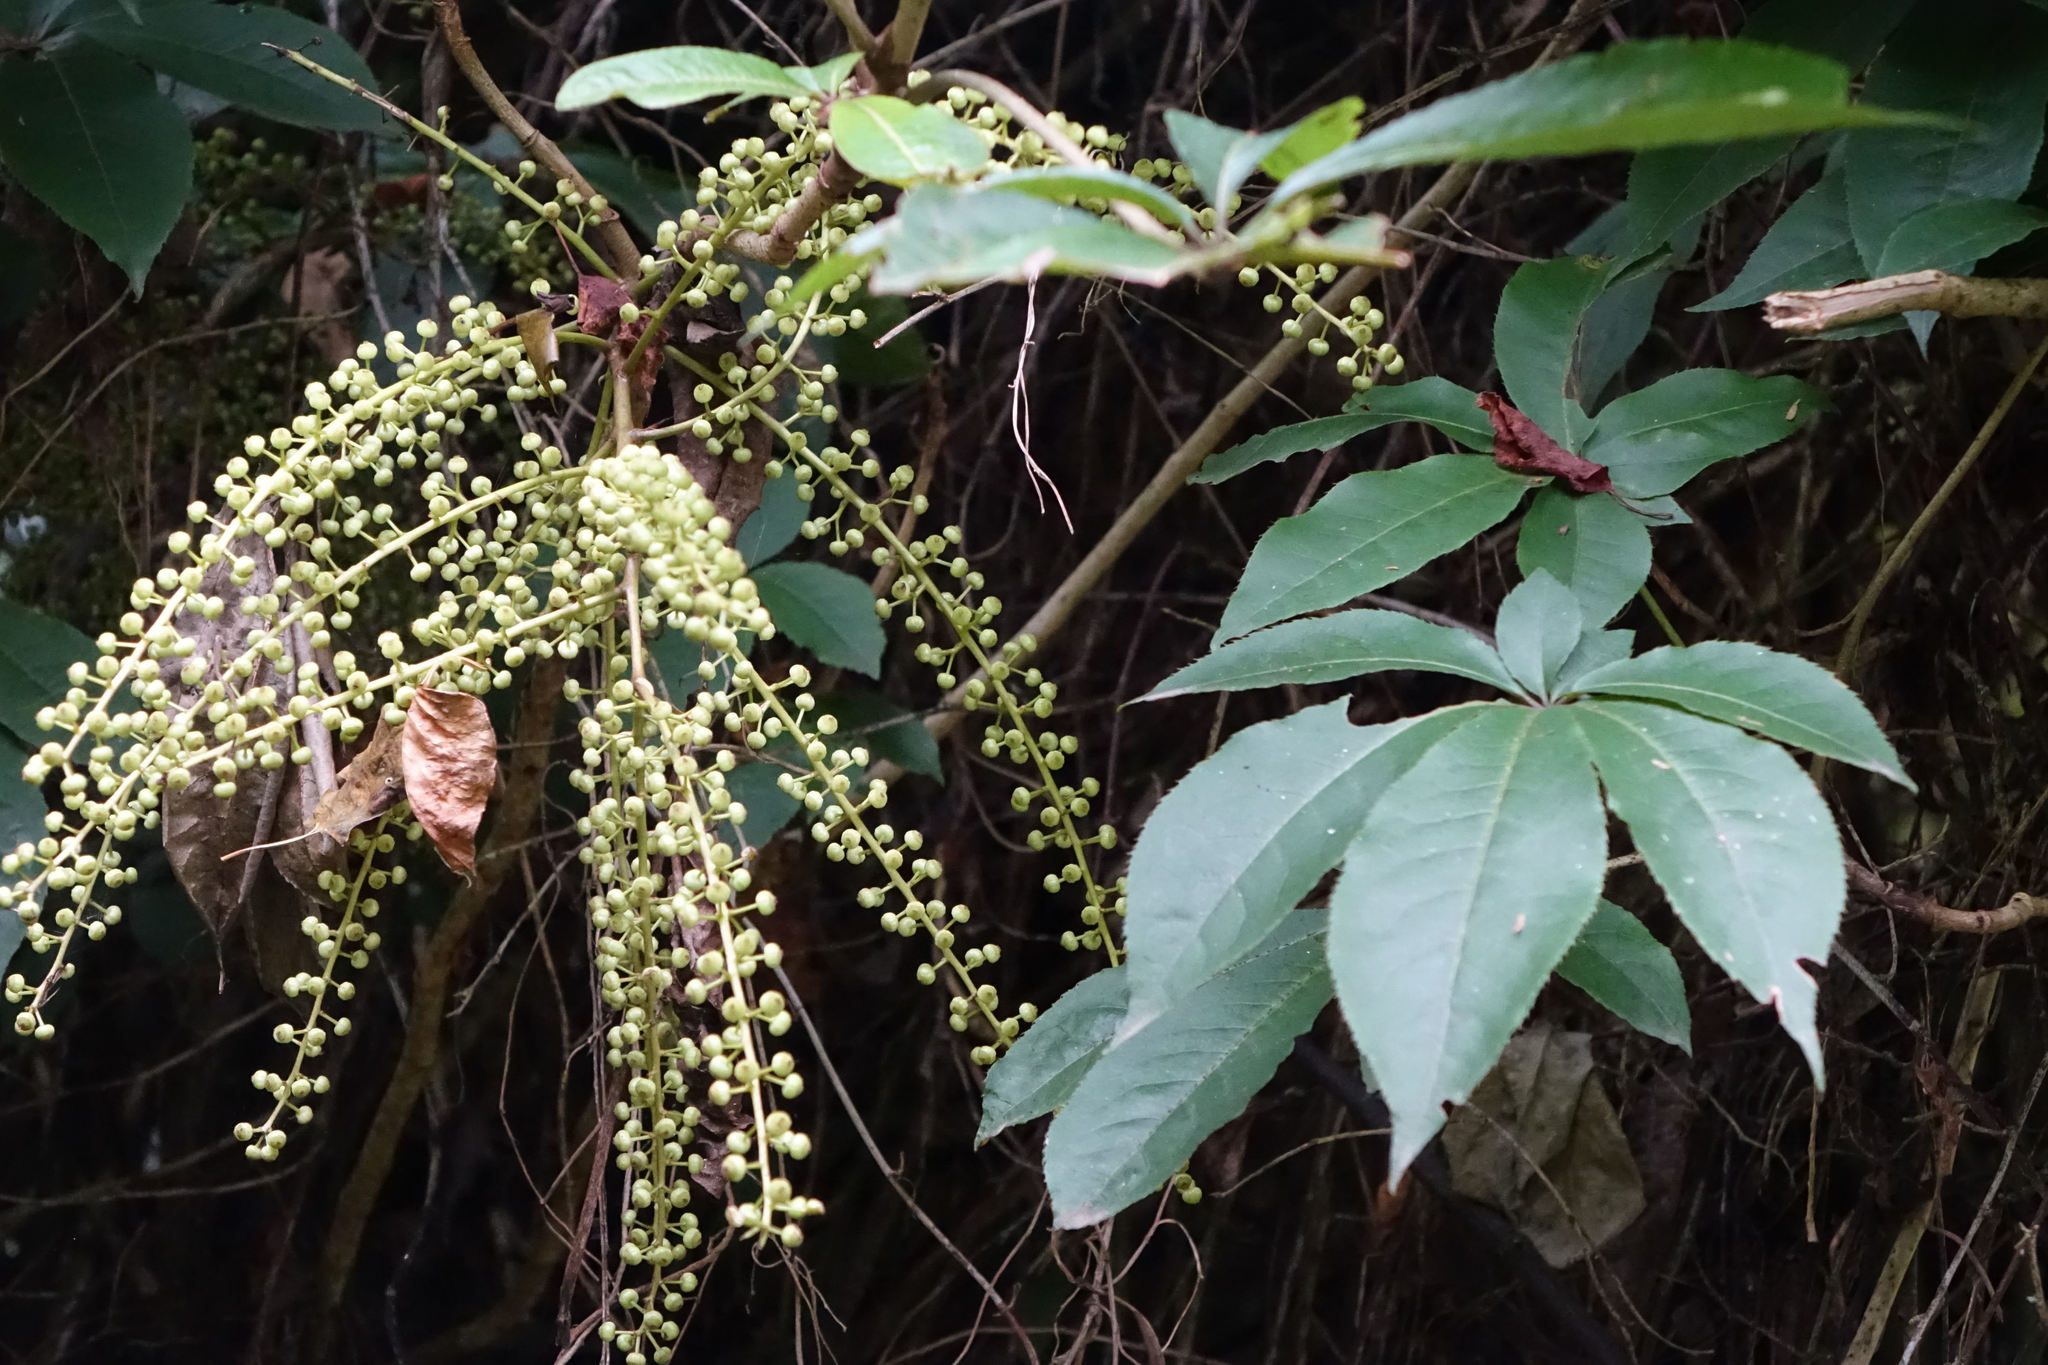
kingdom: Plantae
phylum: Tracheophyta
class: Magnoliopsida
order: Apiales
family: Araliaceae
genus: Schefflera
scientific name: Schefflera digitata
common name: Pate
